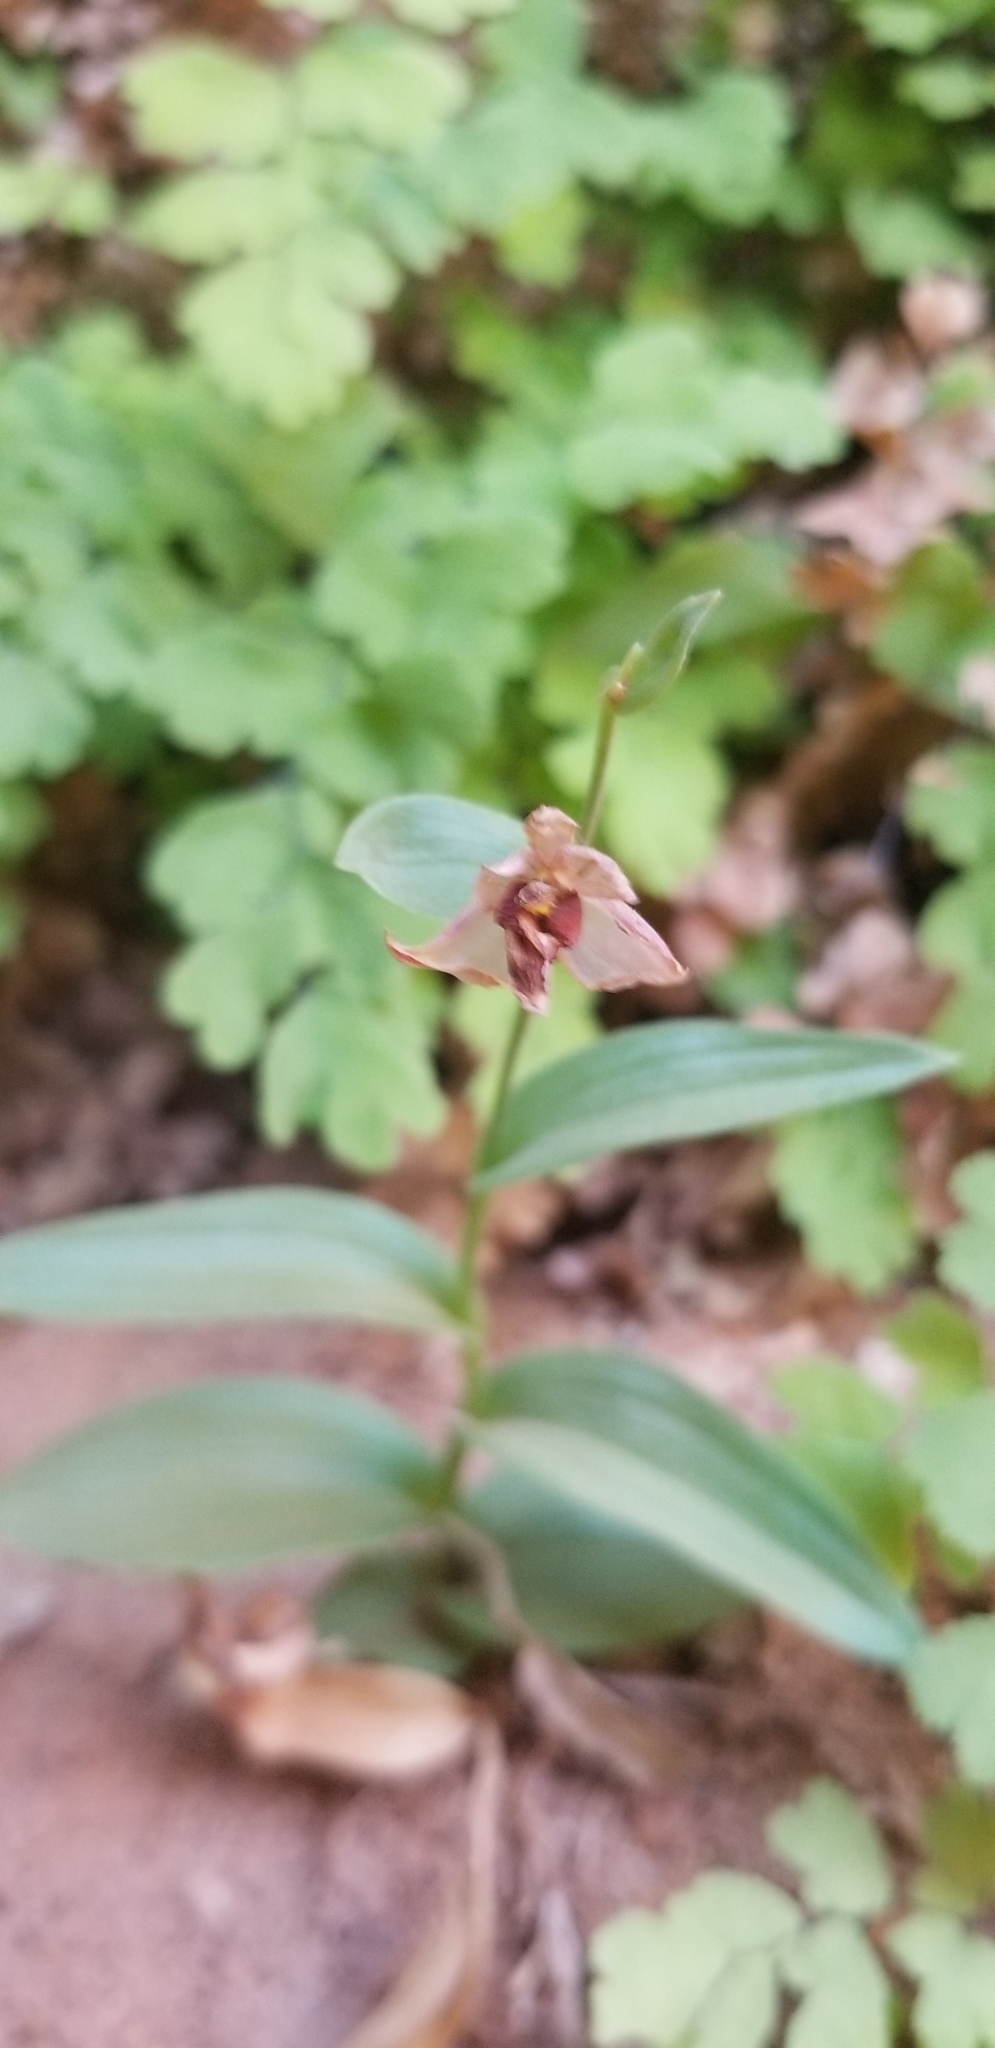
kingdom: Plantae
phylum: Tracheophyta
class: Liliopsida
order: Asparagales
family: Orchidaceae
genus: Epipactis
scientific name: Epipactis gigantea
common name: Chatterbox
